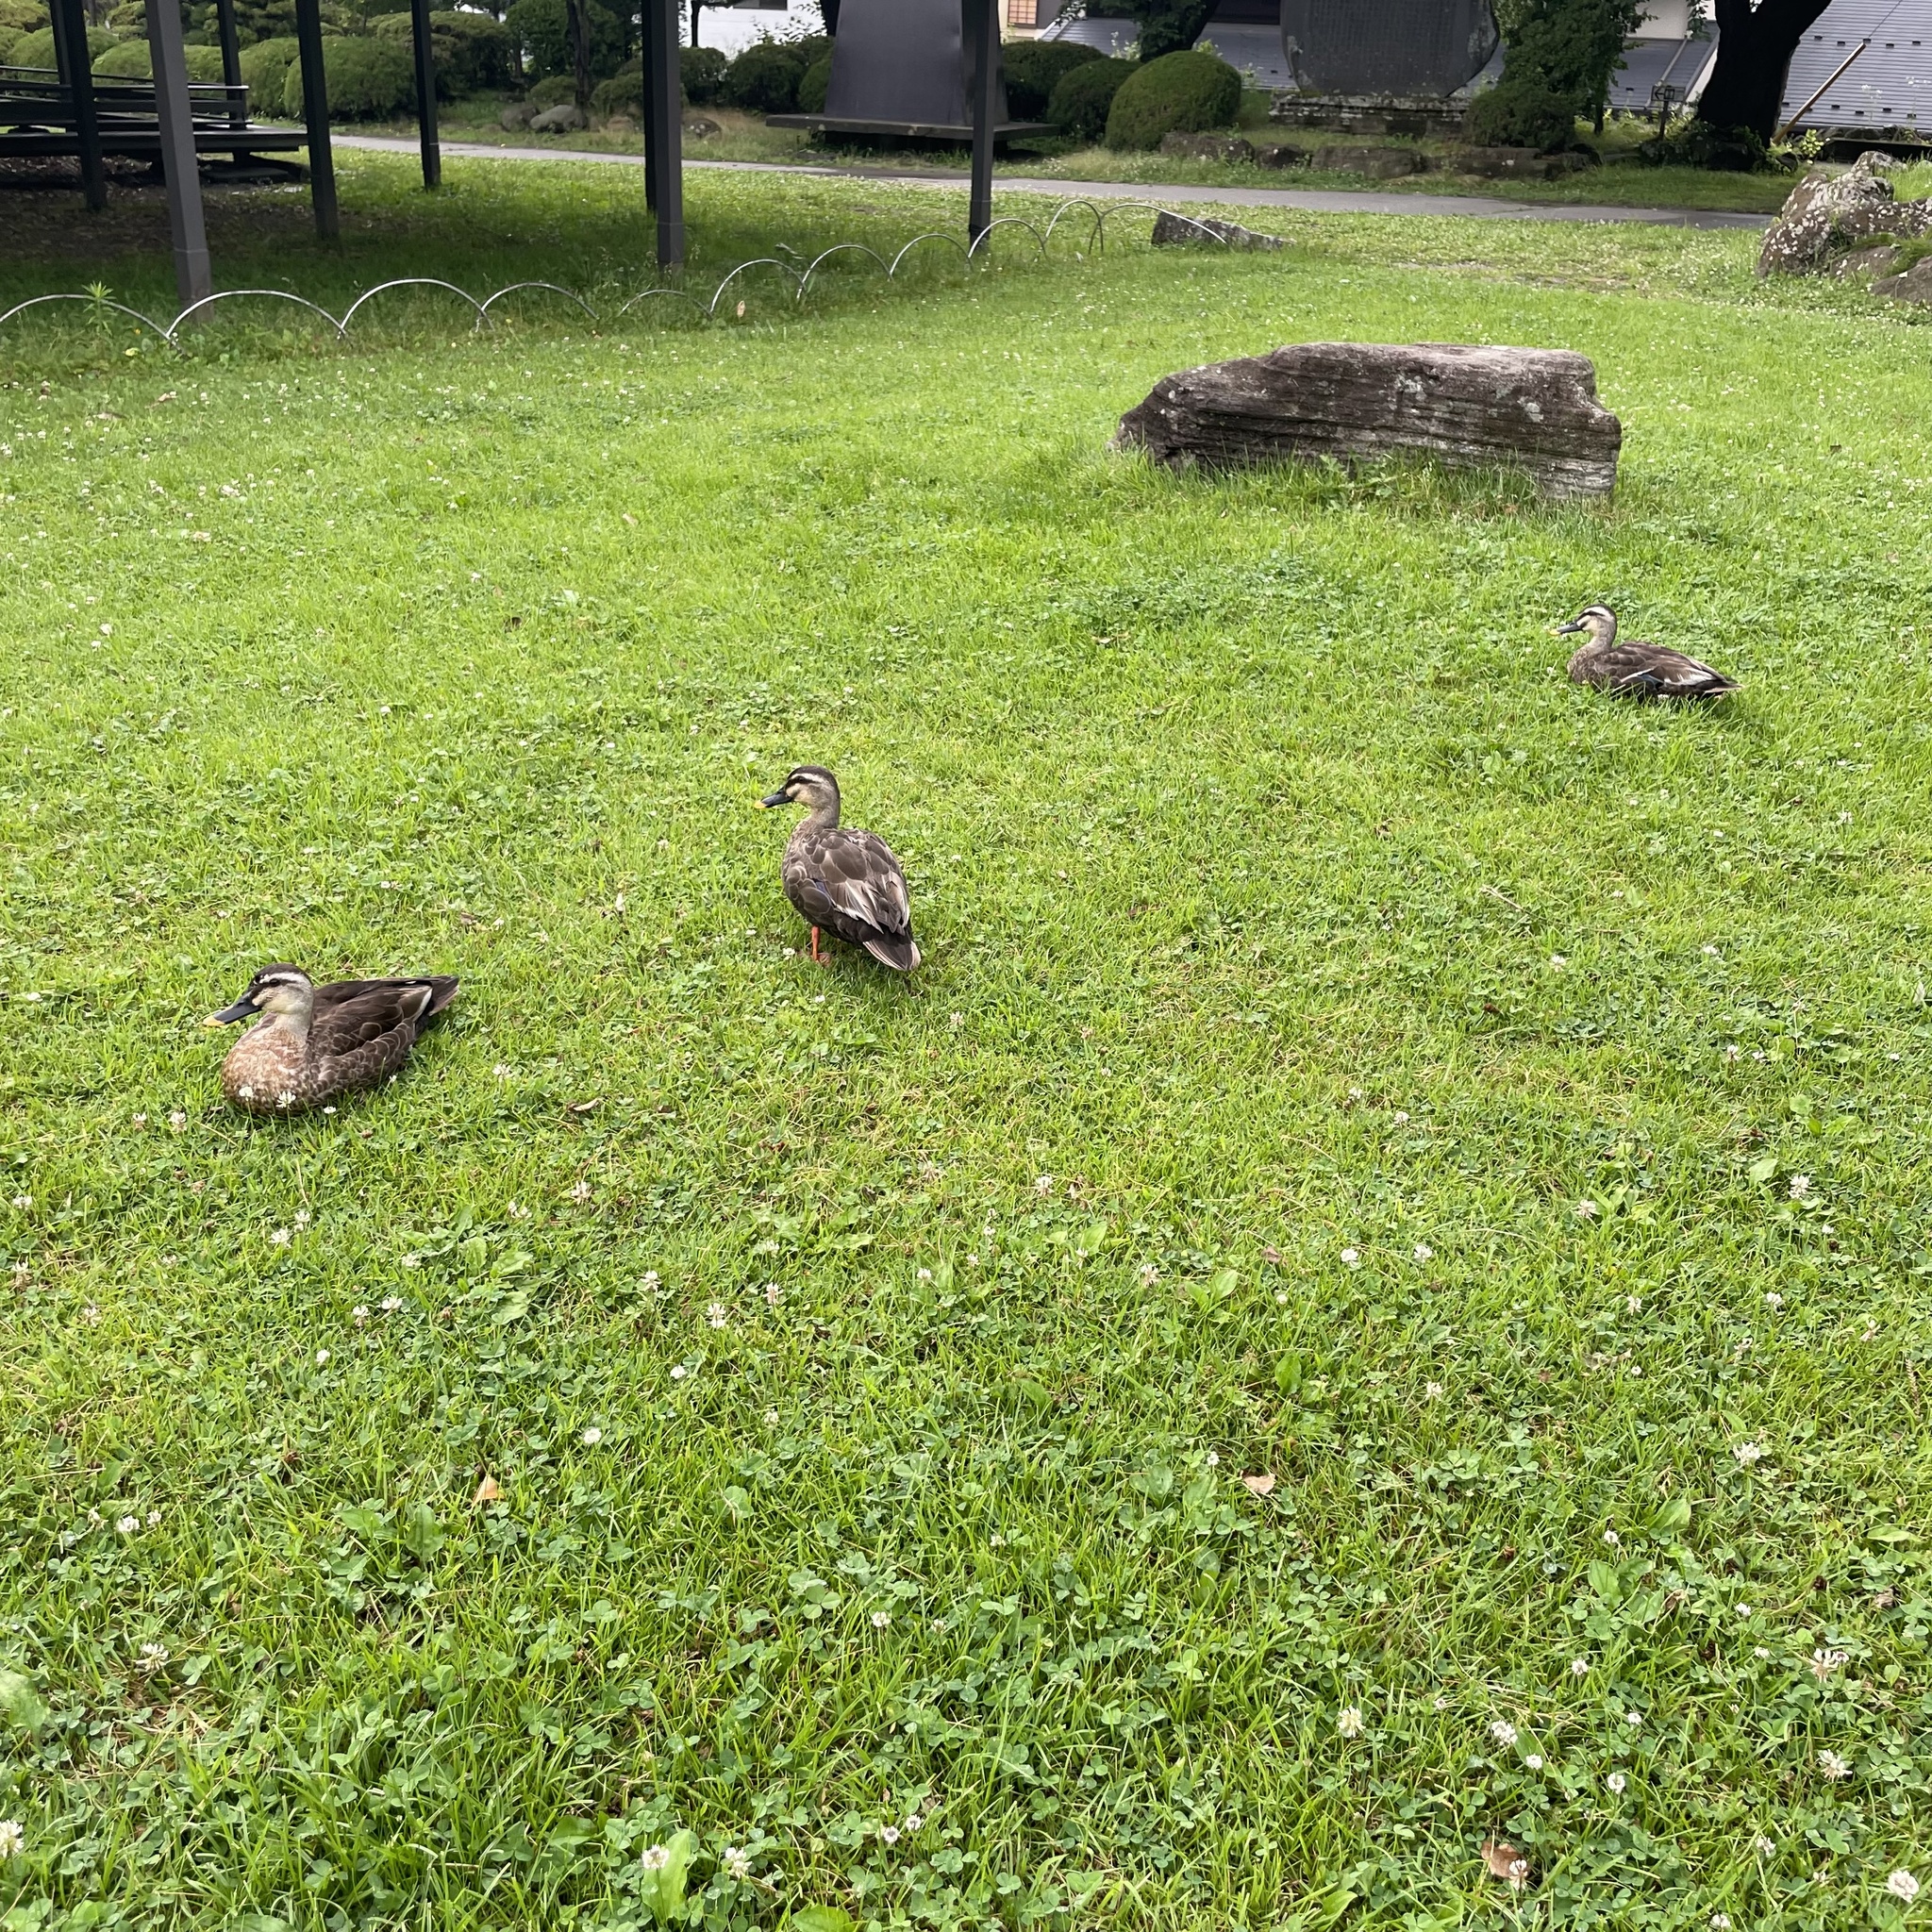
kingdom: Animalia
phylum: Chordata
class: Aves
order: Anseriformes
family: Anatidae
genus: Anas
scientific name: Anas zonorhyncha
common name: Eastern spot-billed duck
